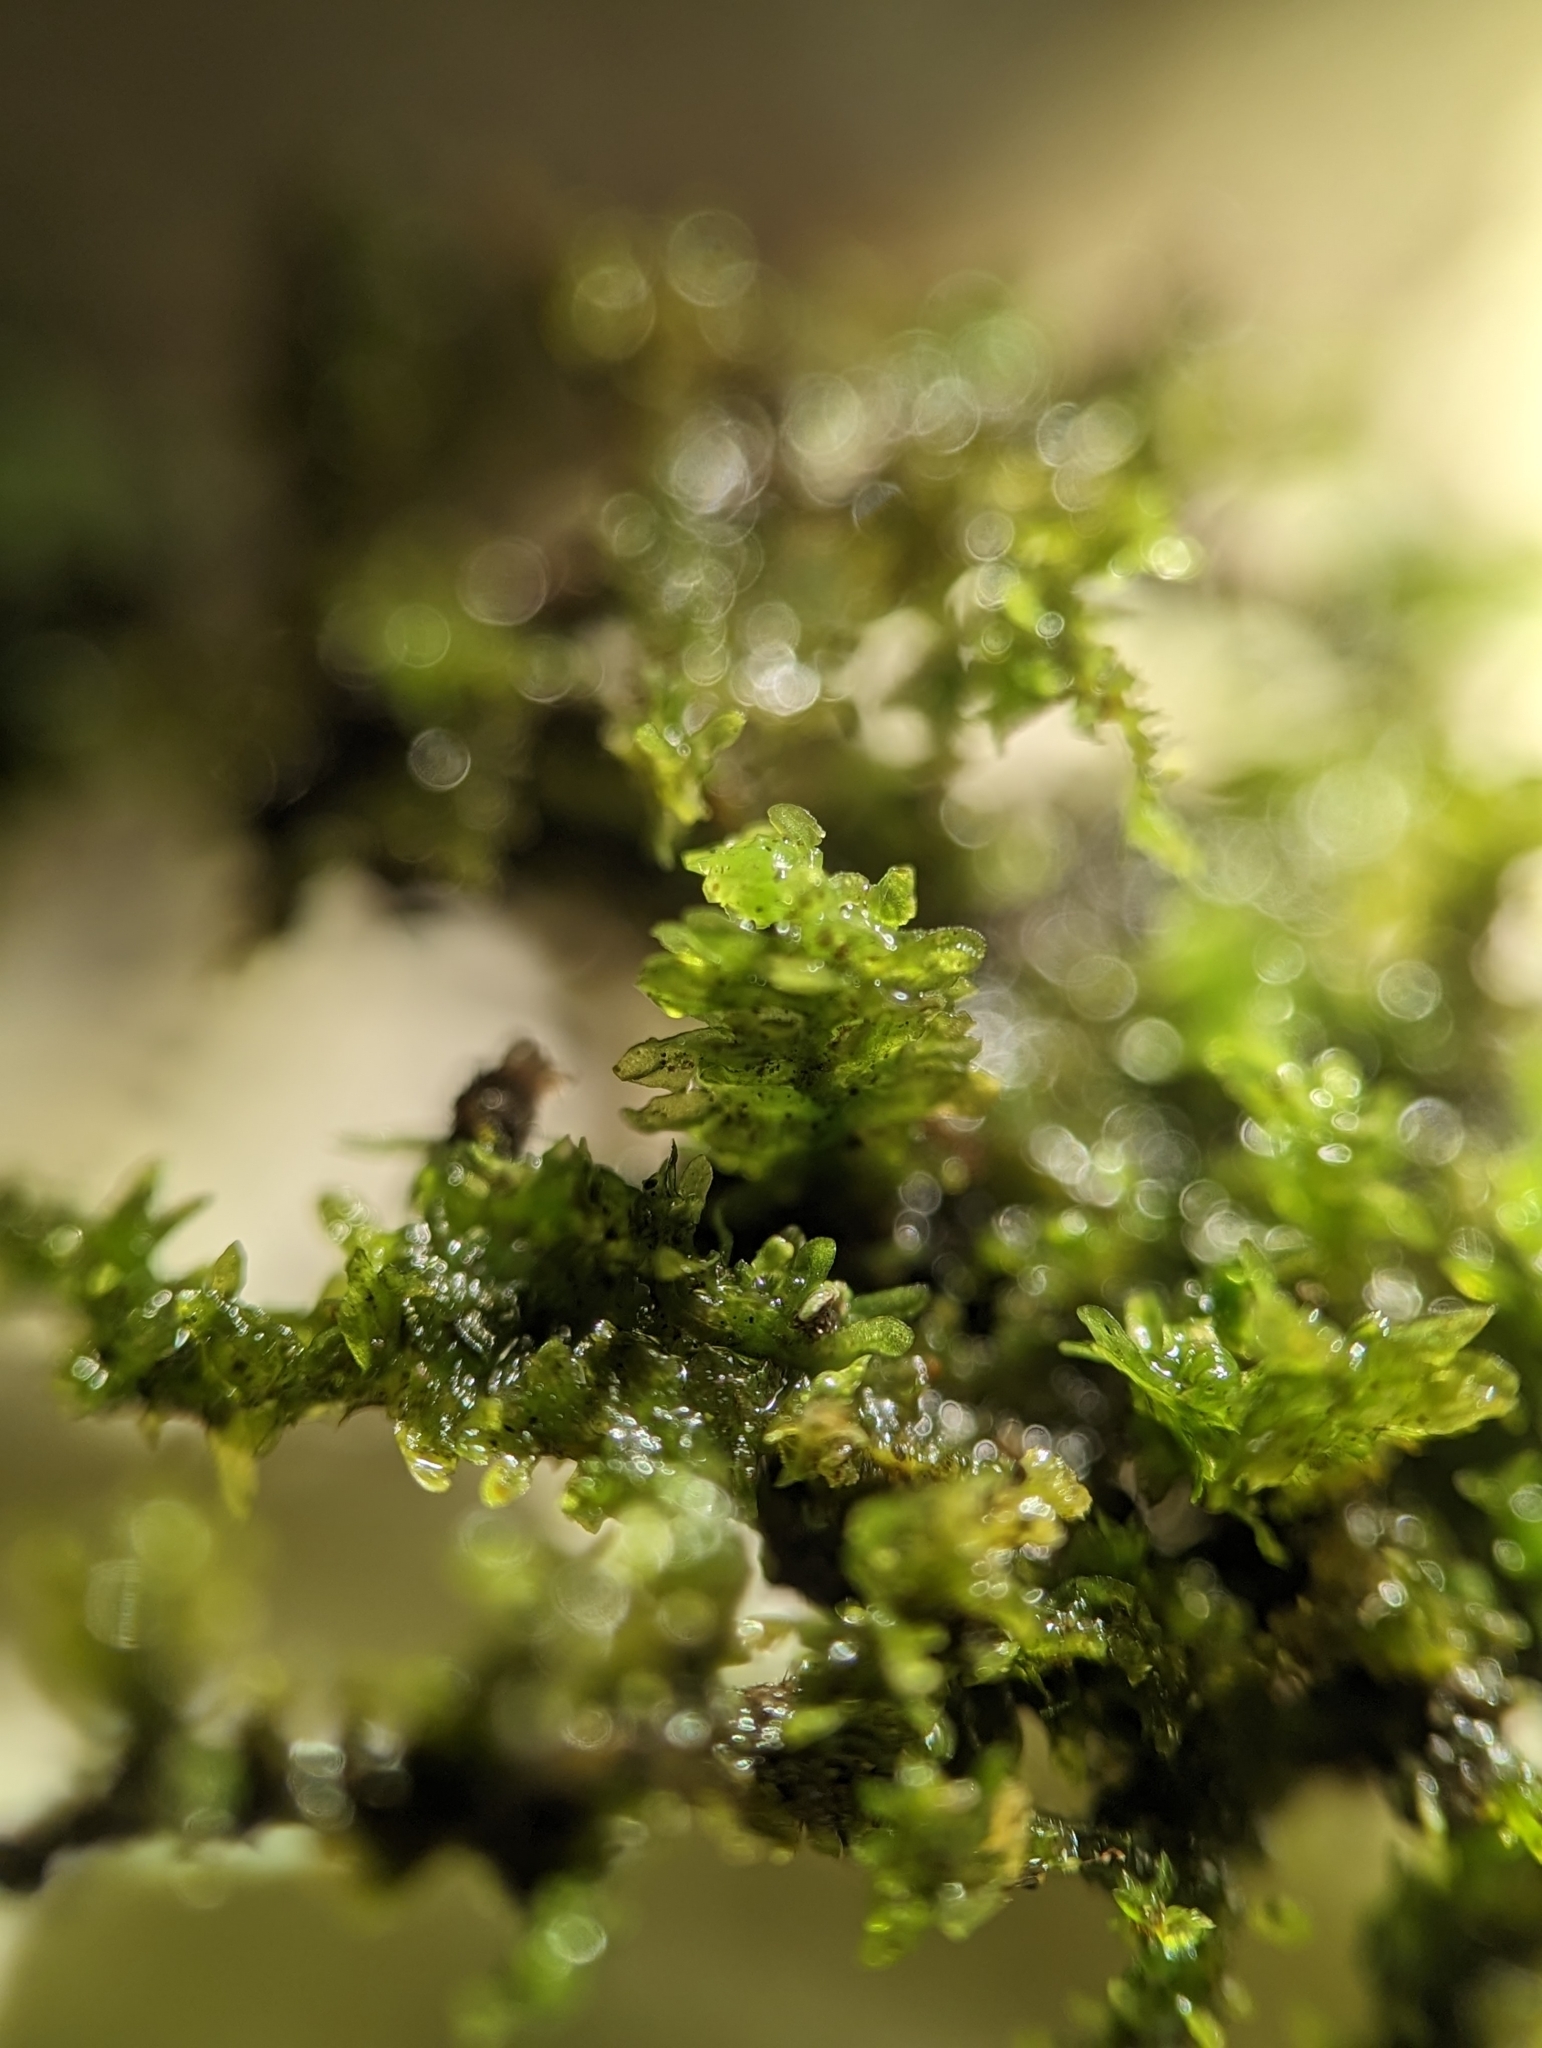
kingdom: Plantae
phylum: Bryophyta
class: Bryopsida
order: Hypnales
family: Anomodontaceae
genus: Anomodon
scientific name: Anomodon minor
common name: Blunt-leaved anomodon
